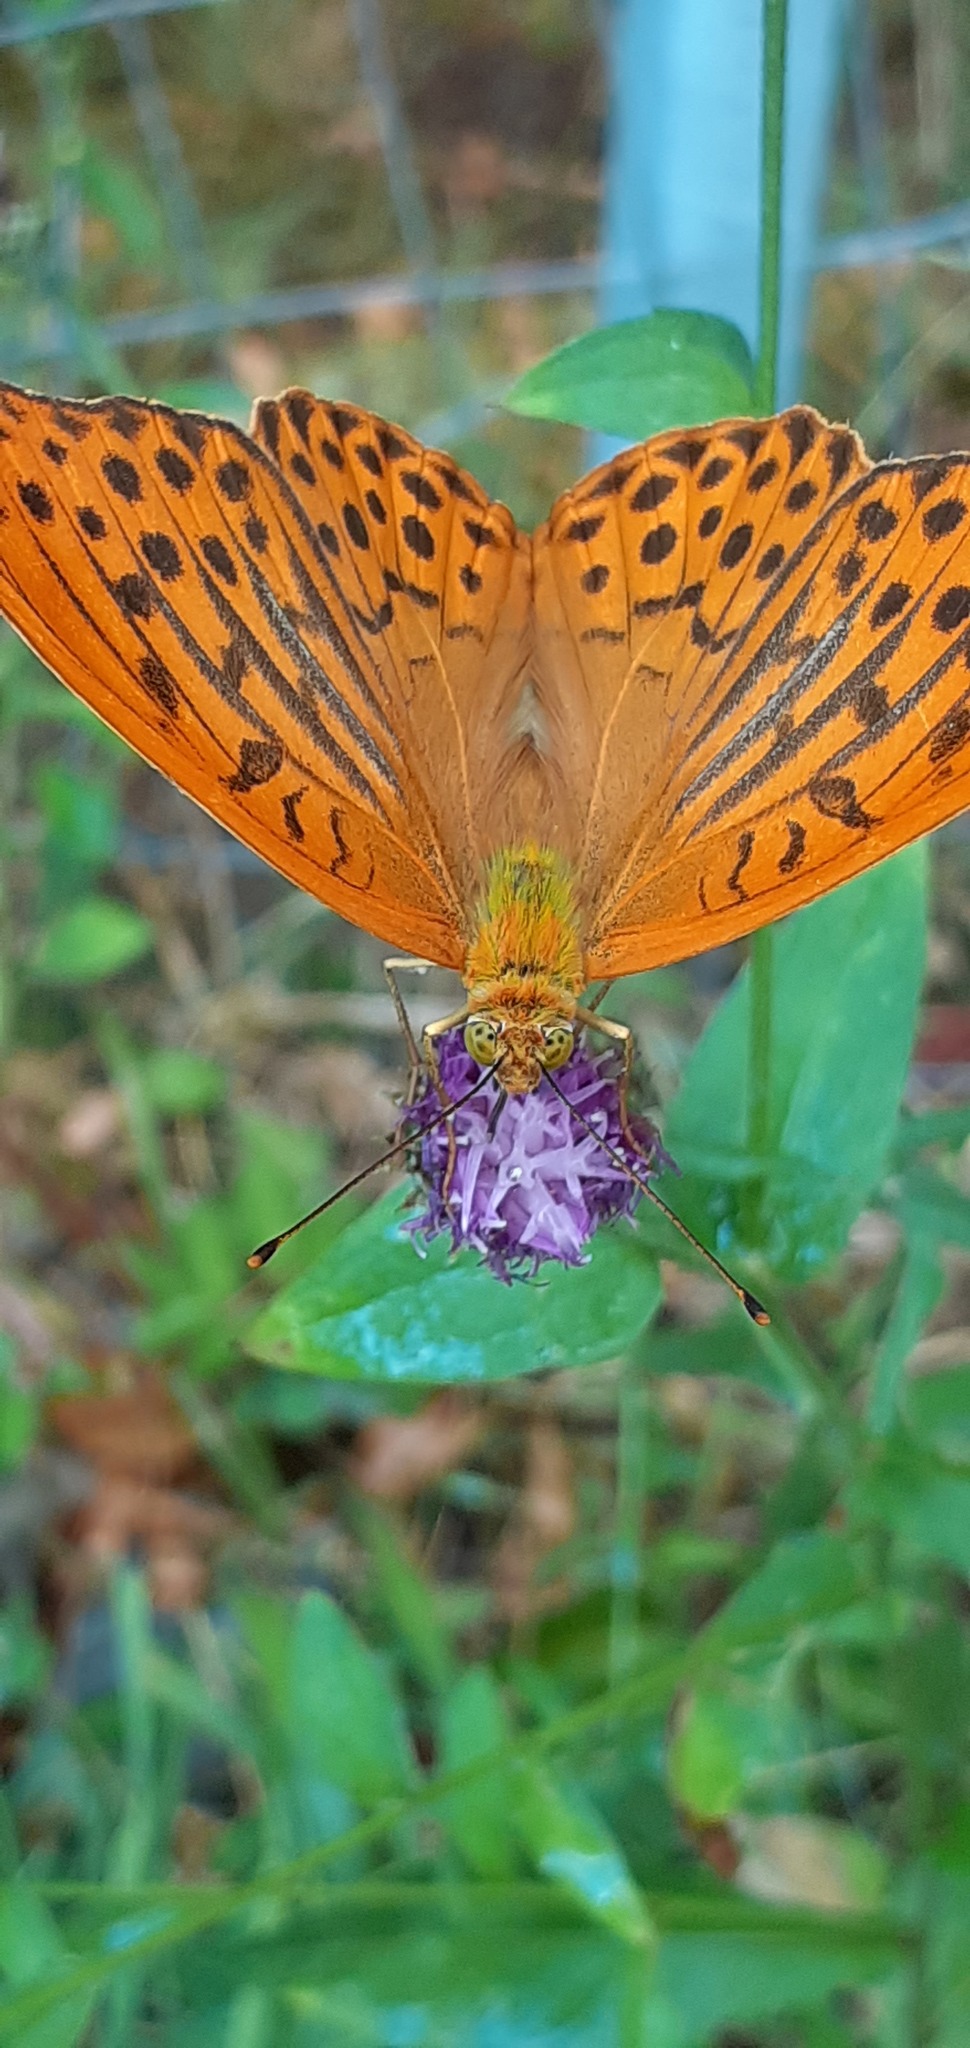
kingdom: Animalia
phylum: Arthropoda
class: Insecta
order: Lepidoptera
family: Nymphalidae
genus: Argynnis
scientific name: Argynnis paphia
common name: Silver-washed fritillary
